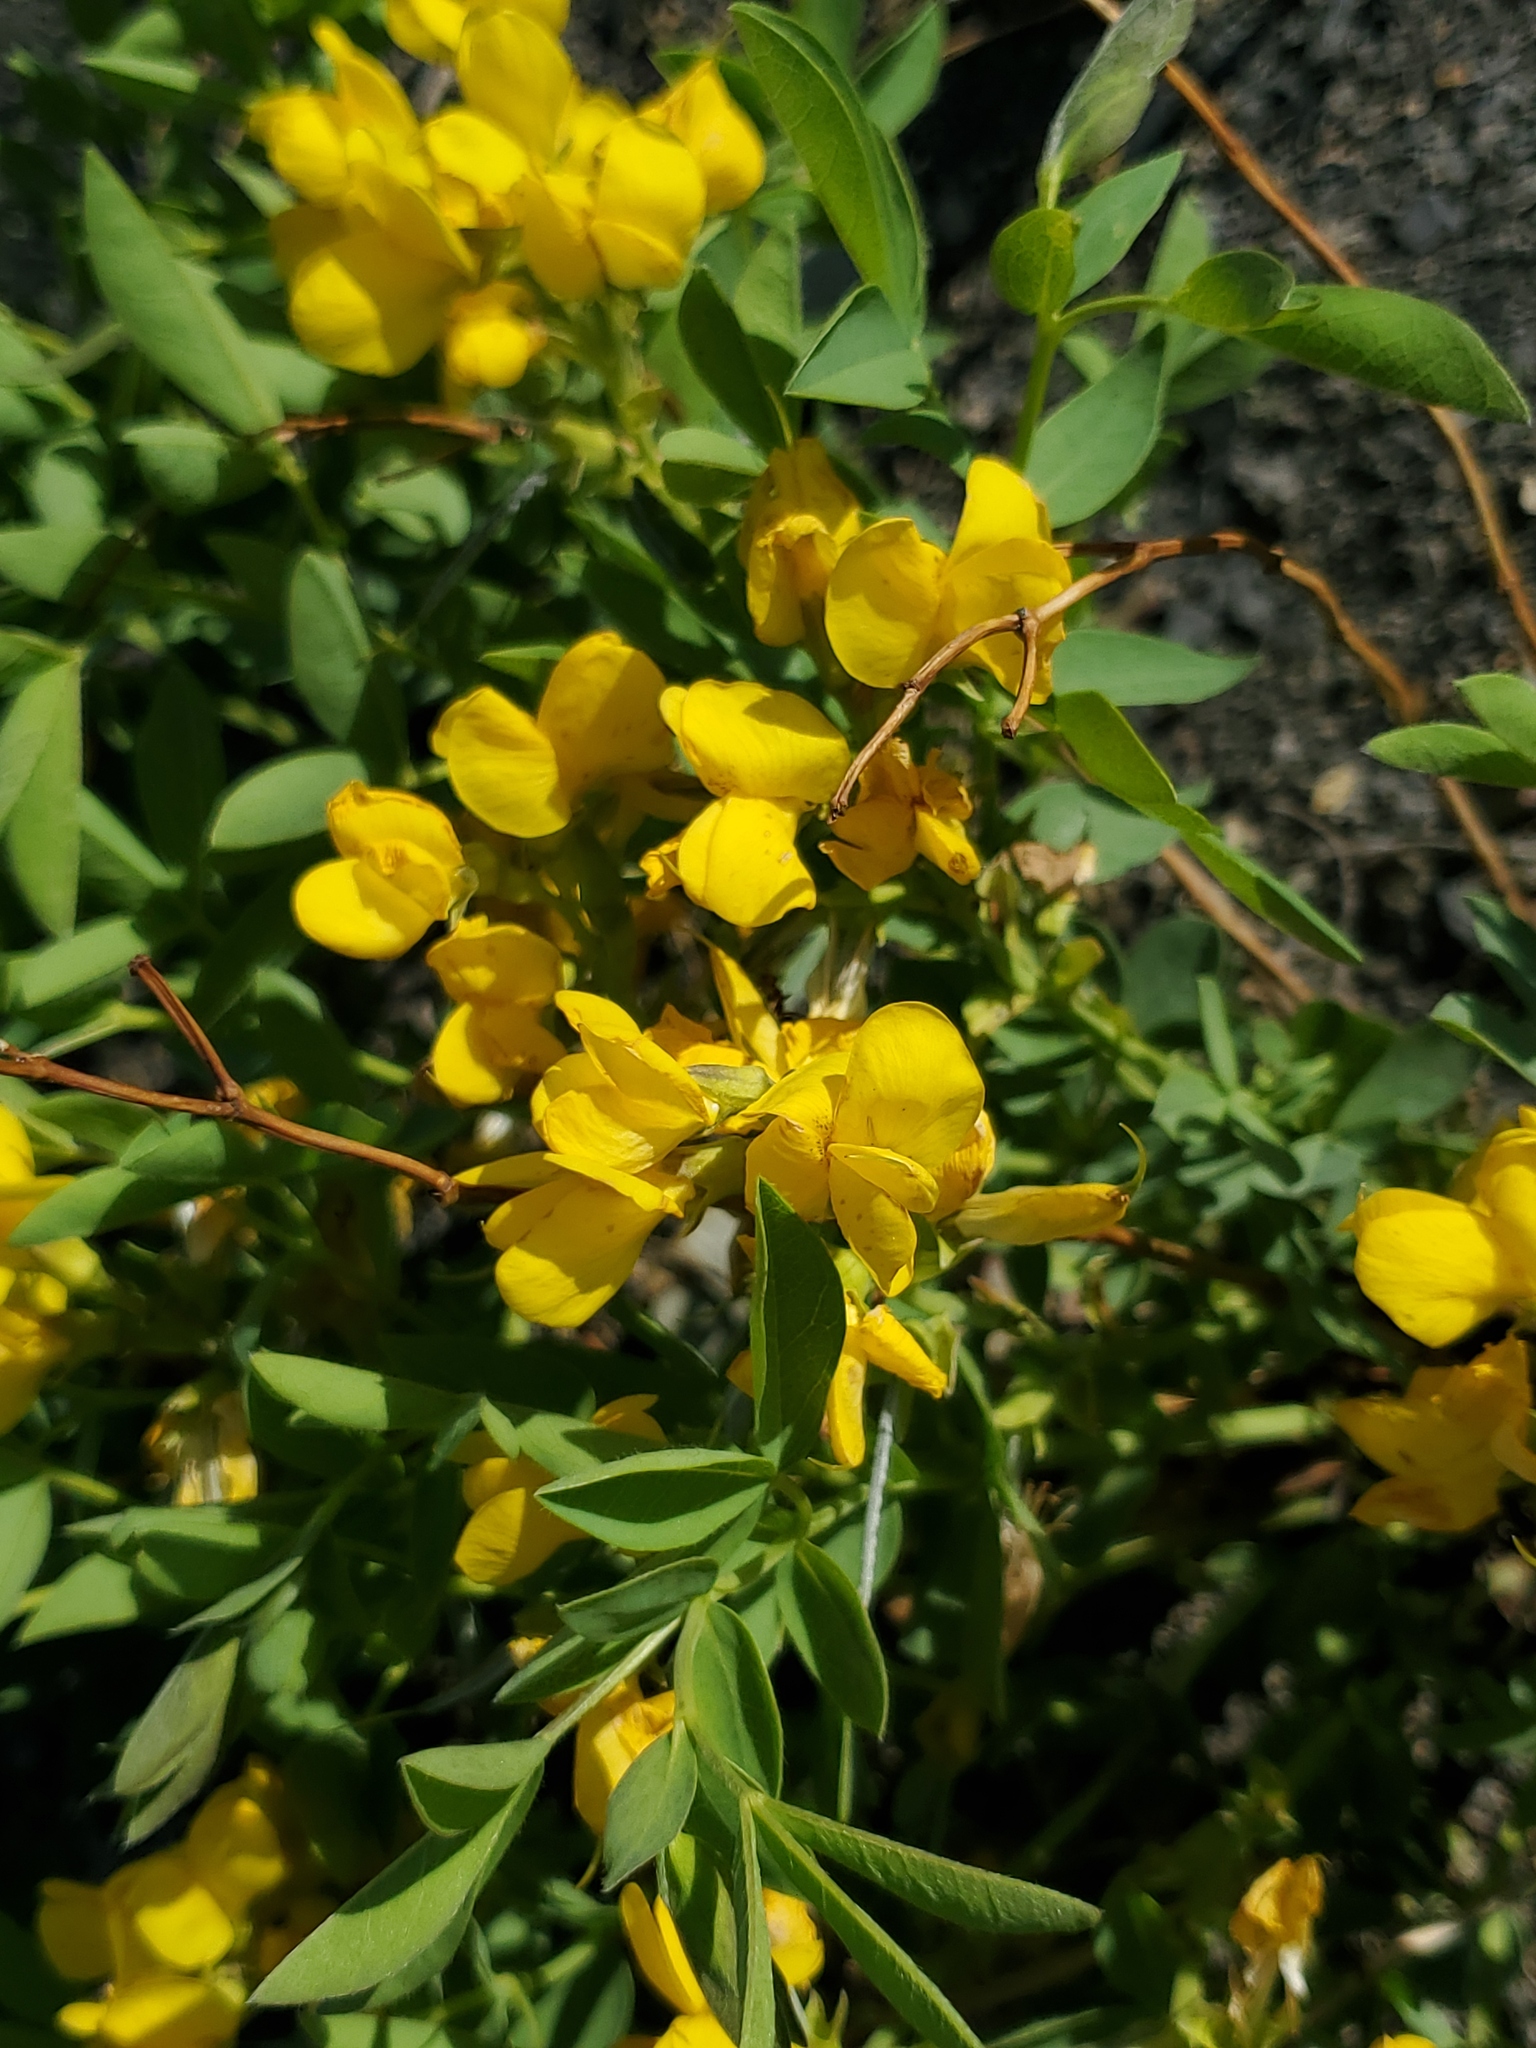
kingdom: Plantae
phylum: Tracheophyta
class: Magnoliopsida
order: Fabales
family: Fabaceae
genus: Thermopsis
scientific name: Thermopsis rhombifolia
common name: Circle-pod-pea
